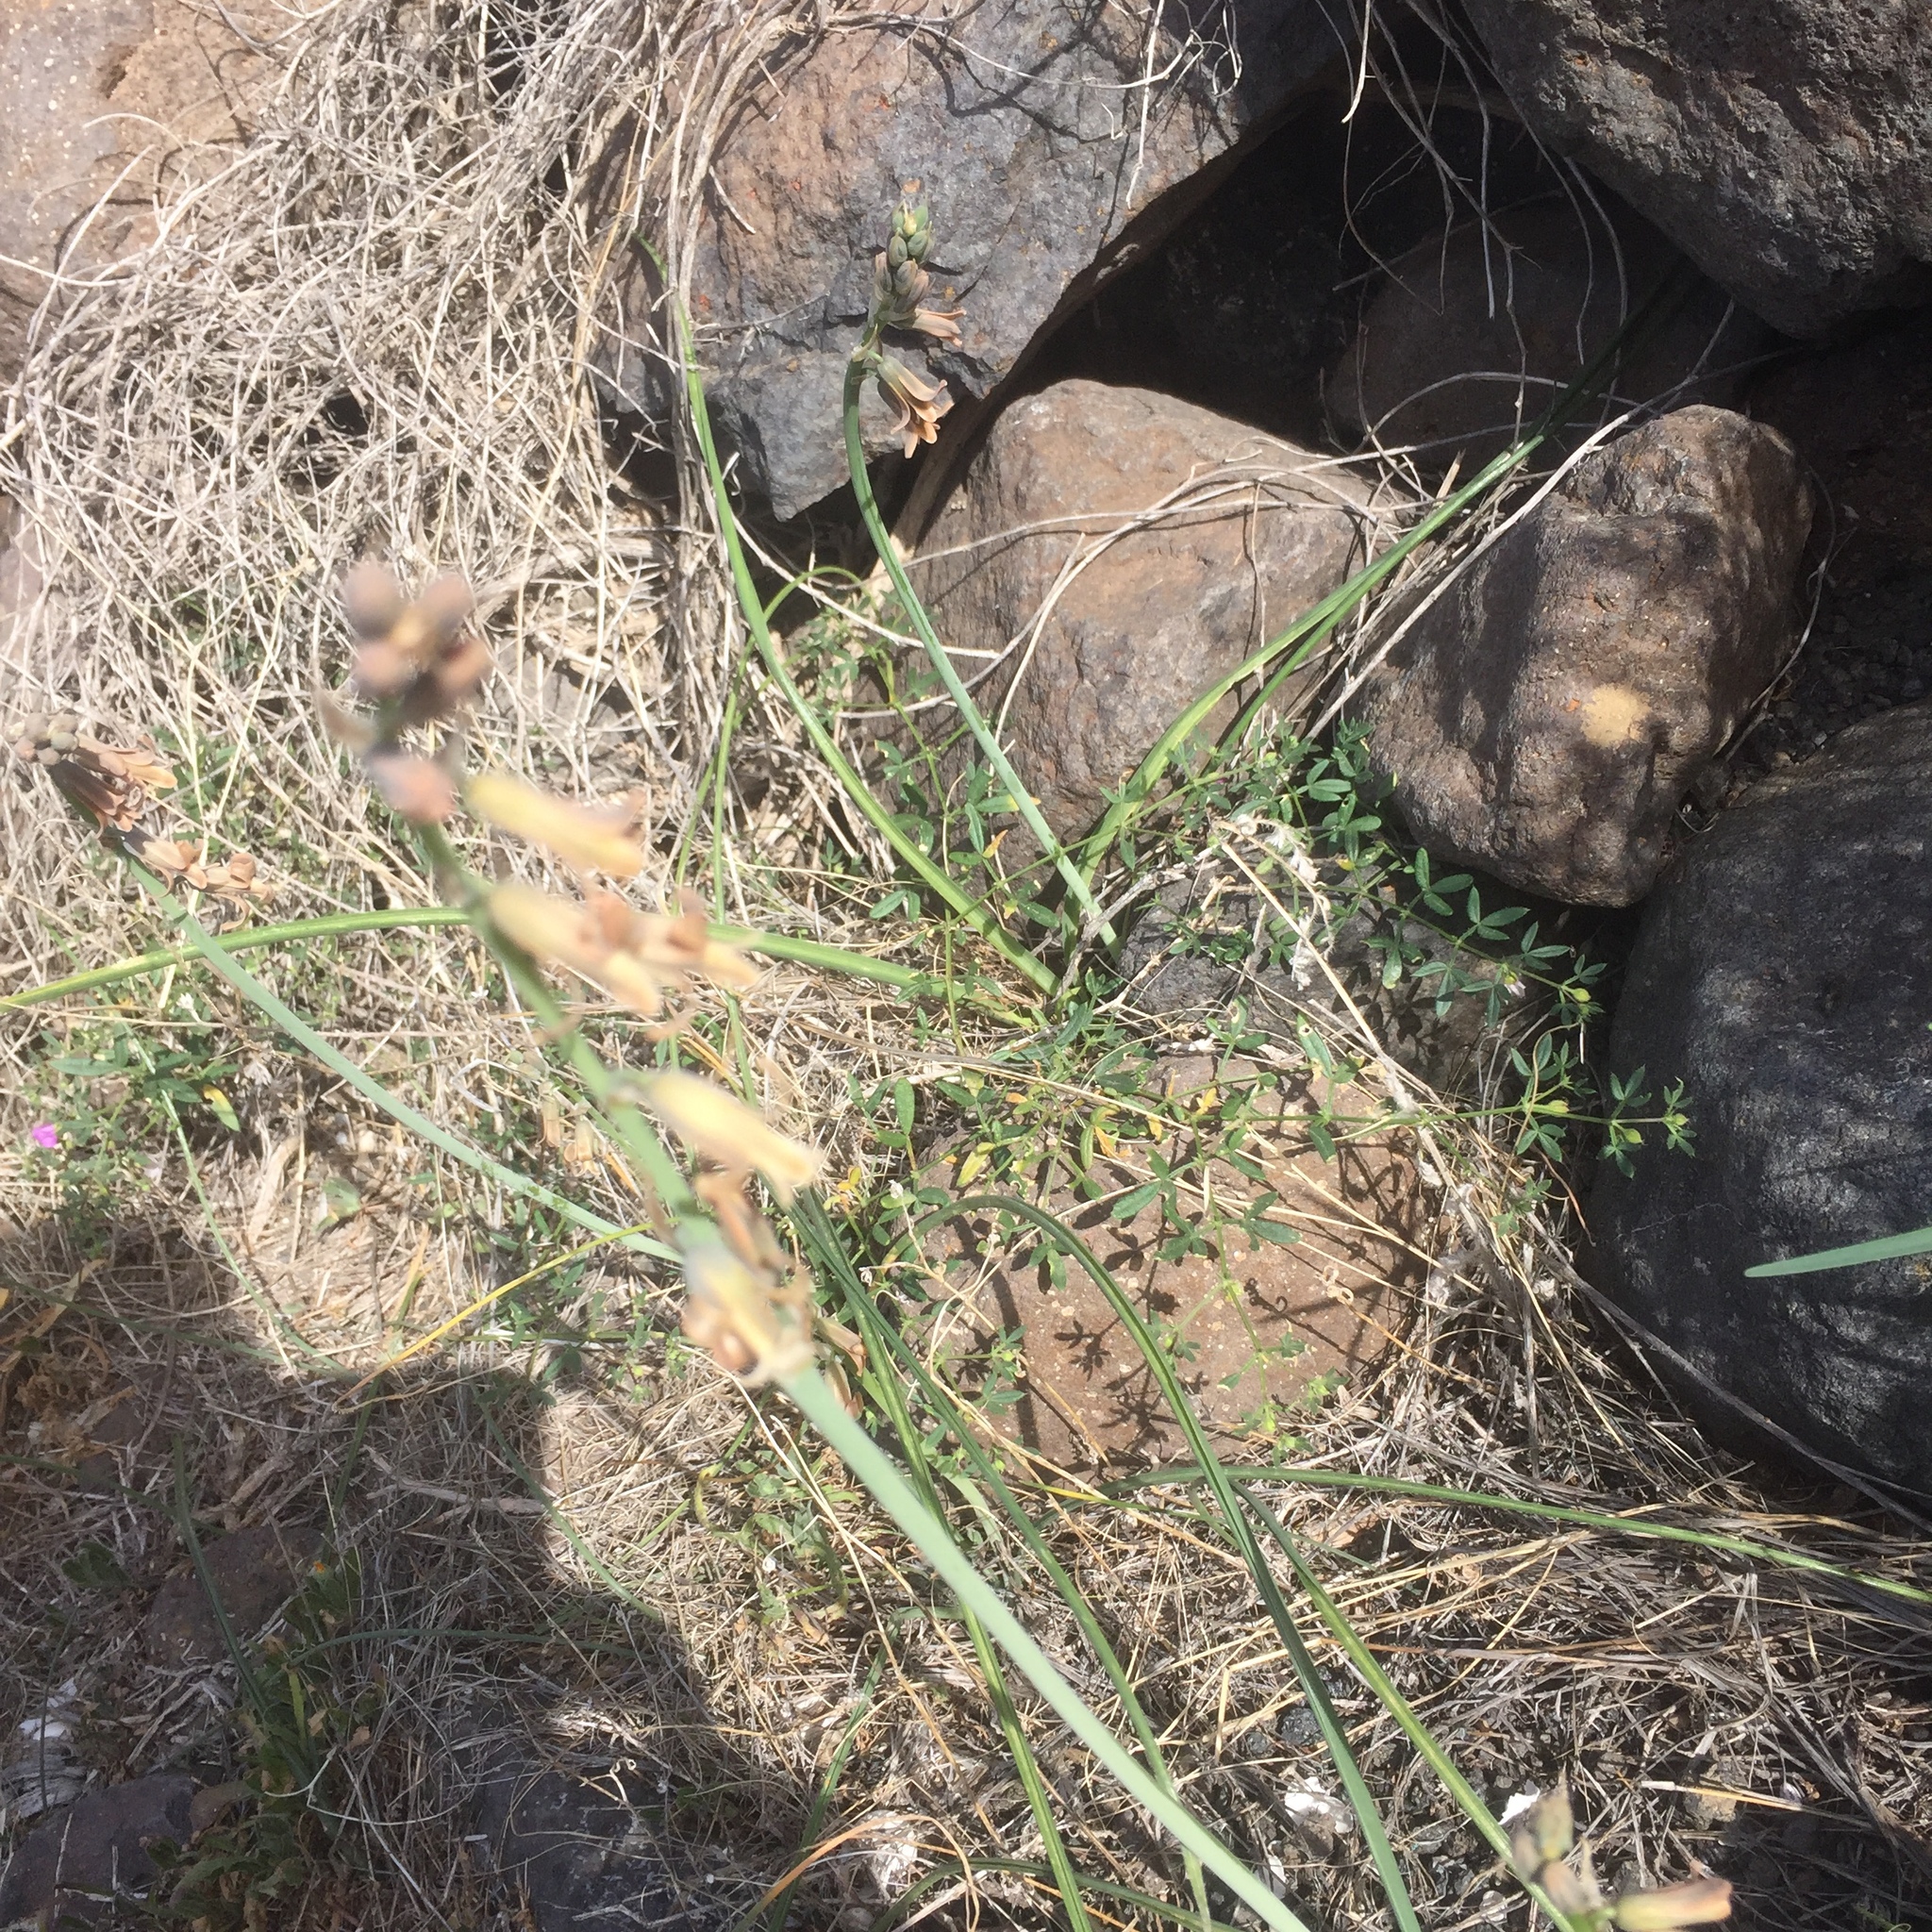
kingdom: Plantae
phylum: Tracheophyta
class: Liliopsida
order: Asparagales
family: Asparagaceae
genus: Dipcadi
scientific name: Dipcadi serotinum
